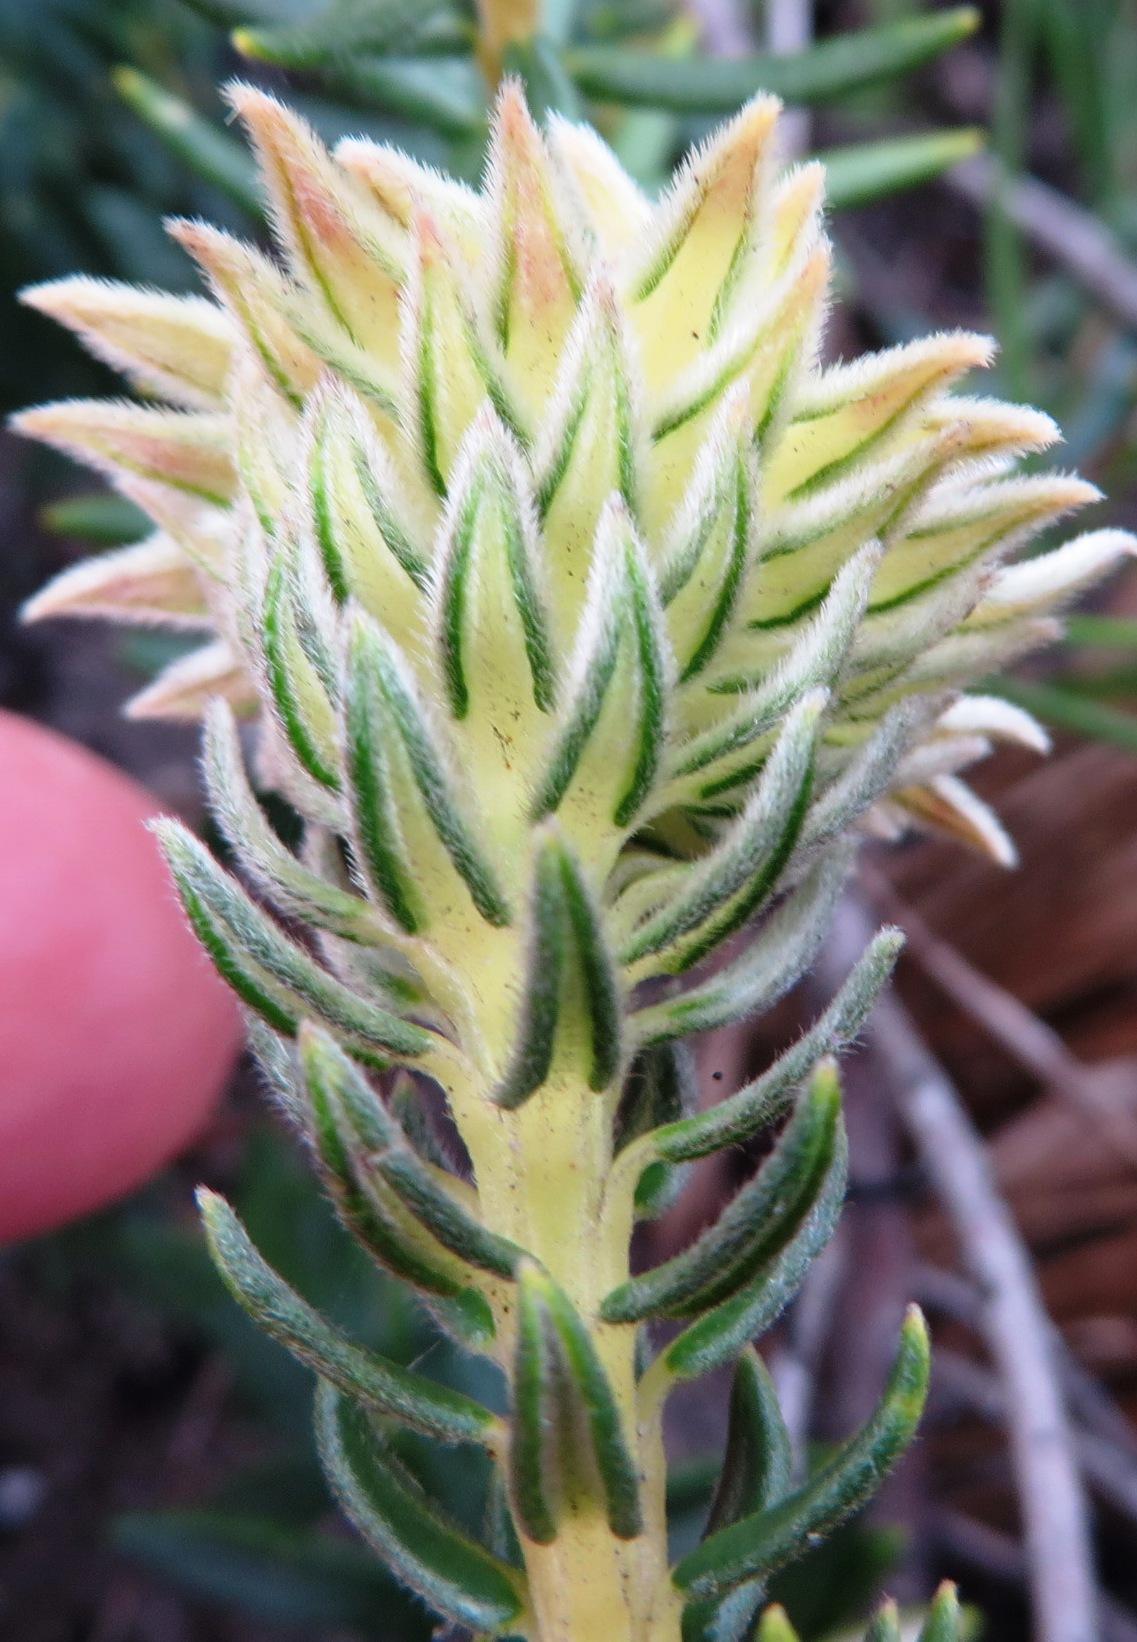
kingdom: Plantae
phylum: Tracheophyta
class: Magnoliopsida
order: Rosales
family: Rhamnaceae
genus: Phylica
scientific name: Phylica lucida
